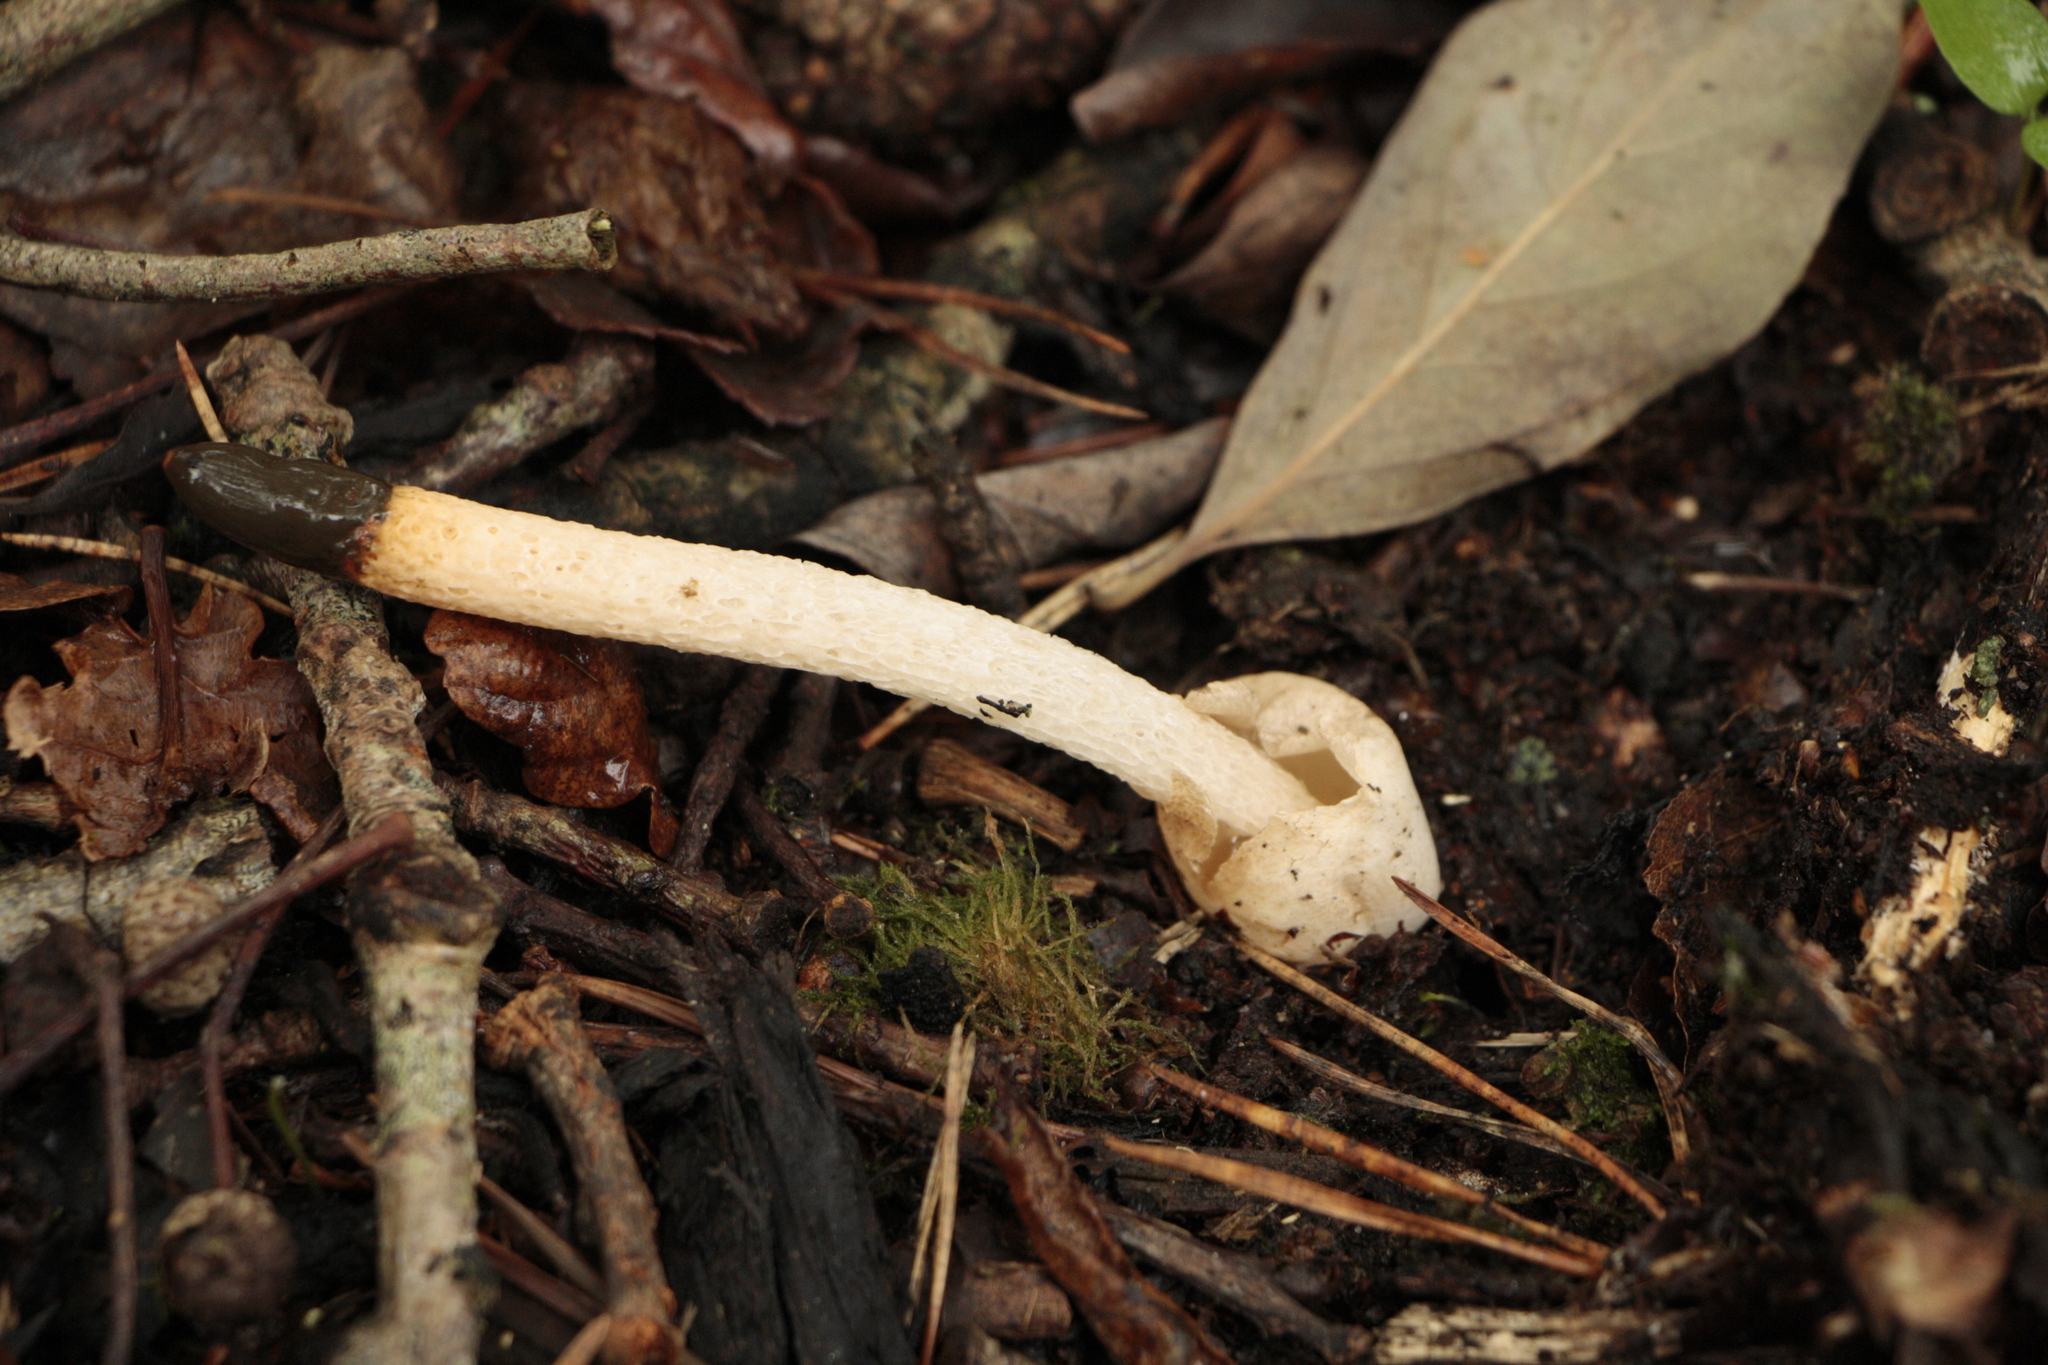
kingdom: Fungi
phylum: Basidiomycota
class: Agaricomycetes
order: Phallales
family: Phallaceae
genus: Mutinus
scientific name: Mutinus caninus
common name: Dog stinkhorn
